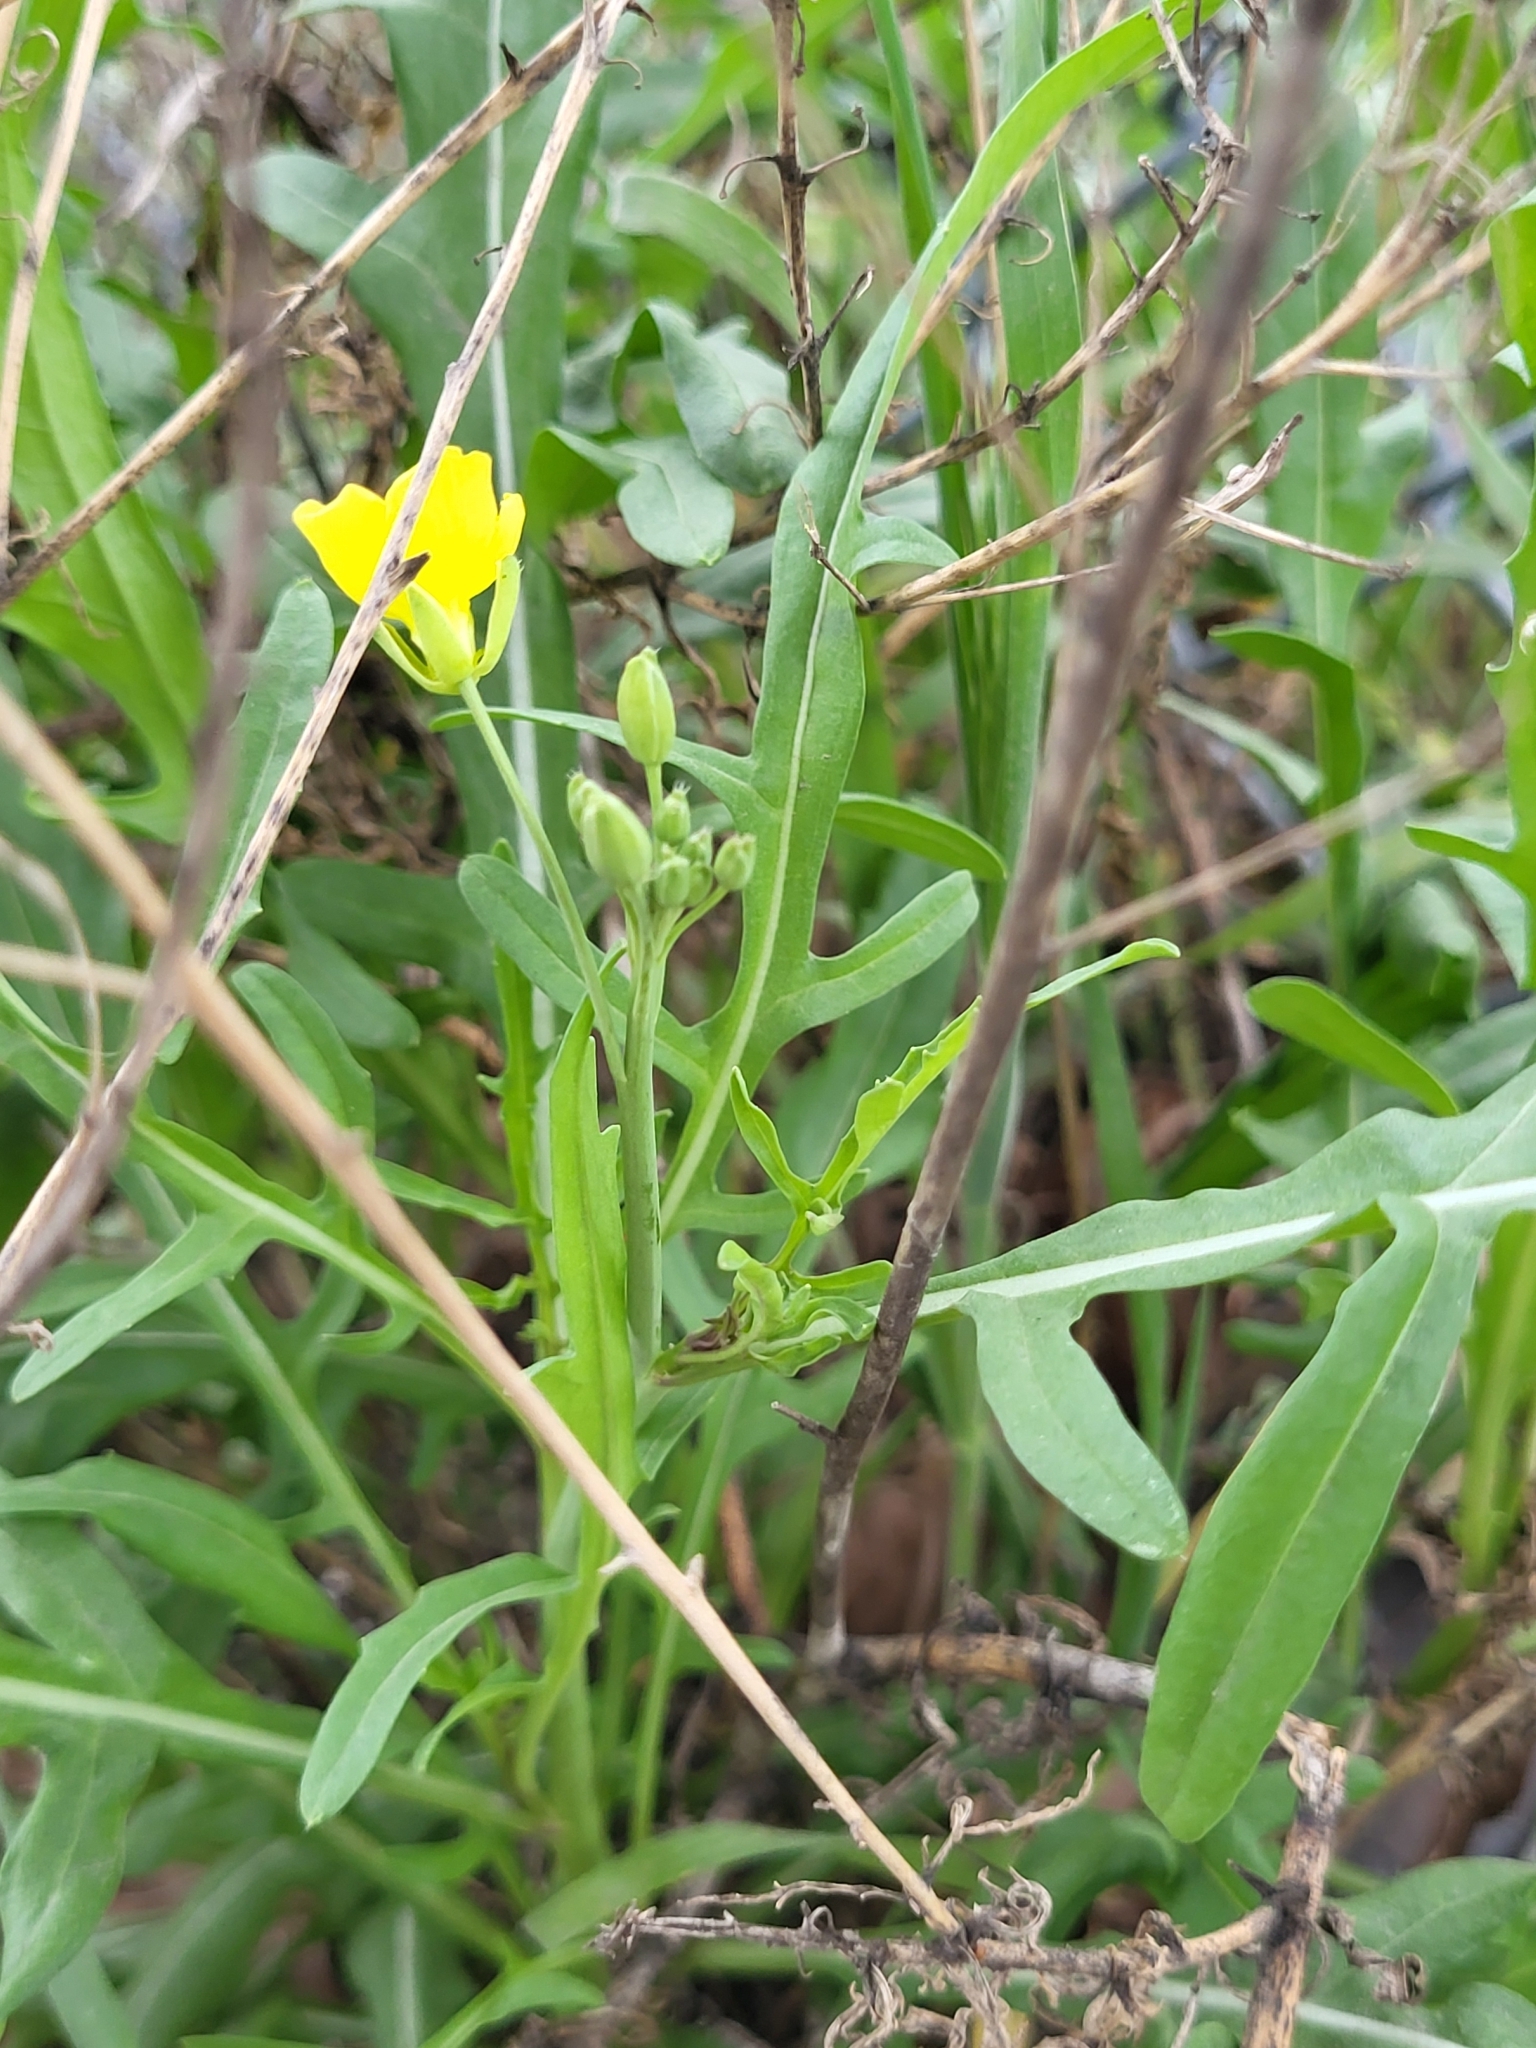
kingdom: Plantae
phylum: Tracheophyta
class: Magnoliopsida
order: Brassicales
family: Brassicaceae
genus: Diplotaxis
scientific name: Diplotaxis tenuifolia
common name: Perennial wall-rocket
